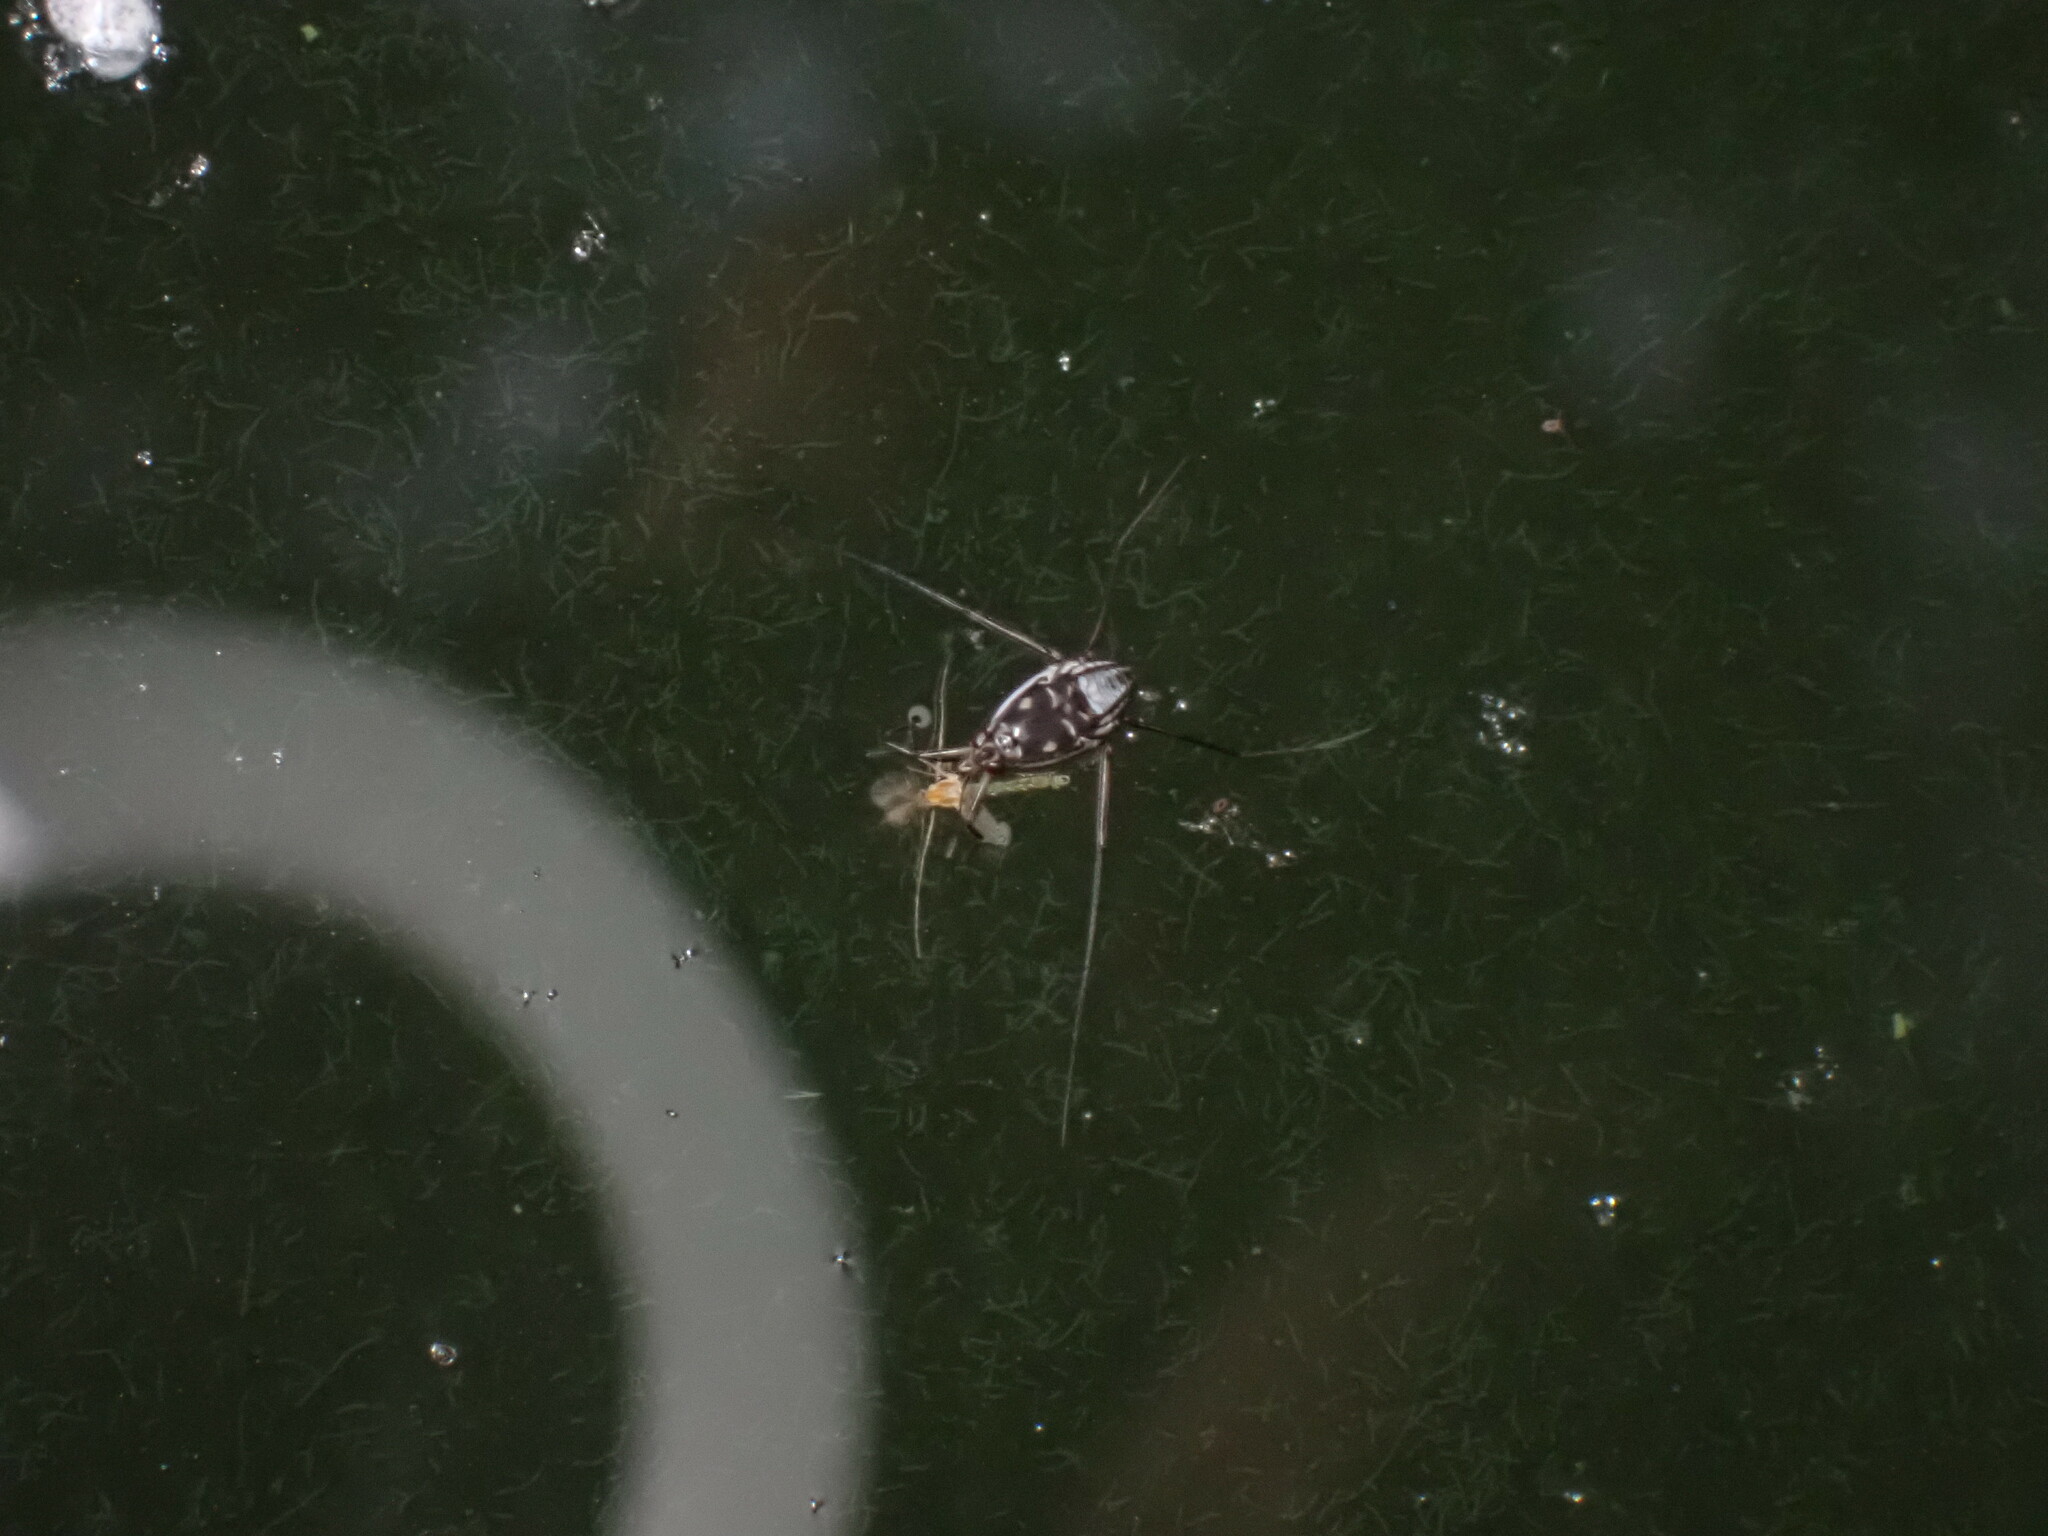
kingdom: Animalia
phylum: Arthropoda
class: Insecta
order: Hemiptera
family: Gerridae
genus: Trepobates
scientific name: Trepobates subnitidus
